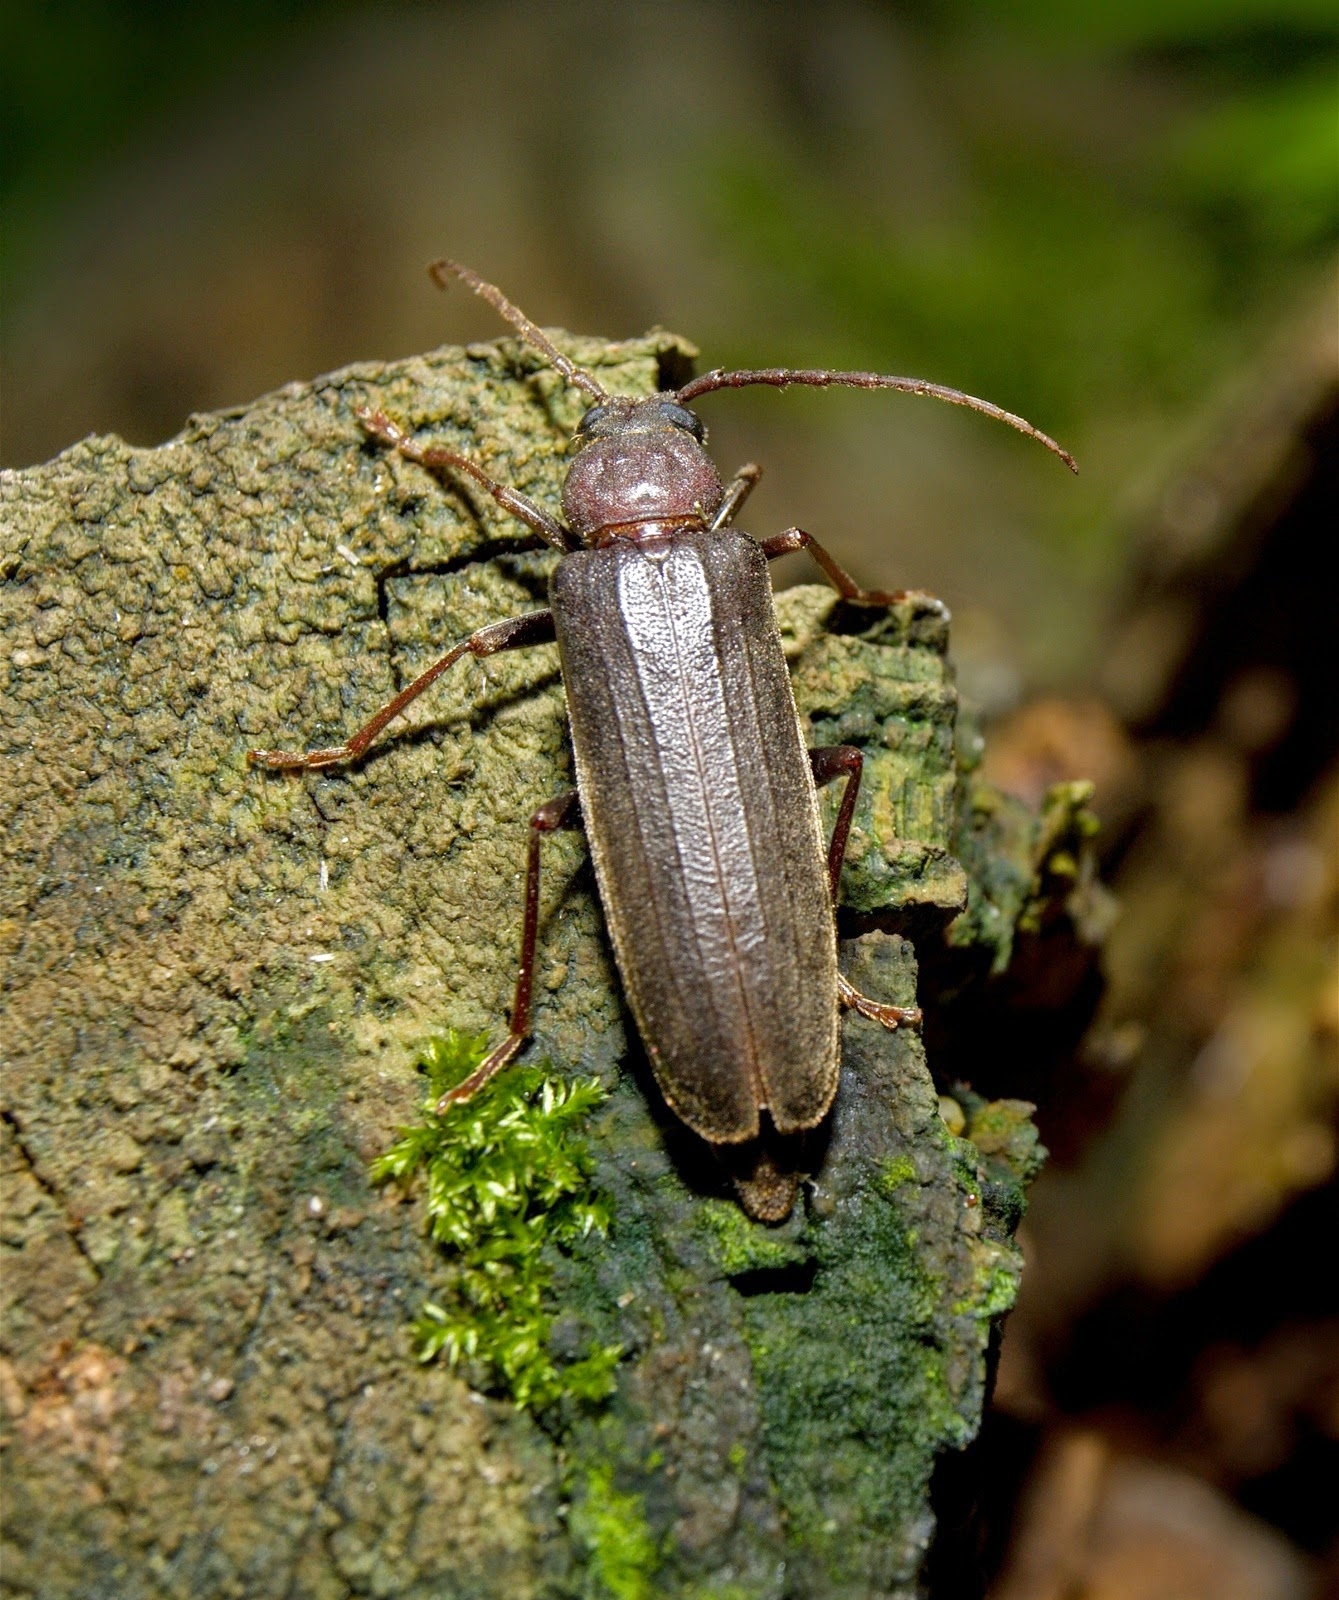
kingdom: Animalia
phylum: Arthropoda
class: Insecta
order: Coleoptera
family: Cerambycidae
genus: Arhopalus
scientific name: Arhopalus rusticus
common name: Rust pine borer
